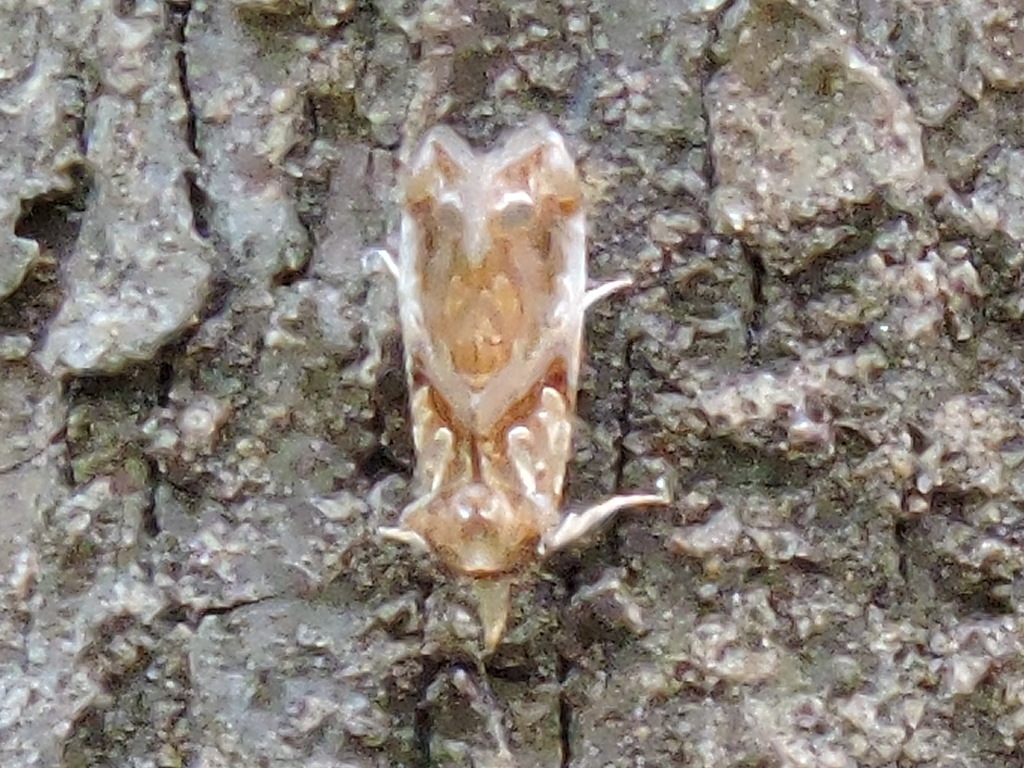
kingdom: Animalia
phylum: Arthropoda
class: Insecta
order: Lepidoptera
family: Erebidae
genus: Plusiodonta
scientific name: Plusiodonta compressipalpis
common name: Moonseed moth
